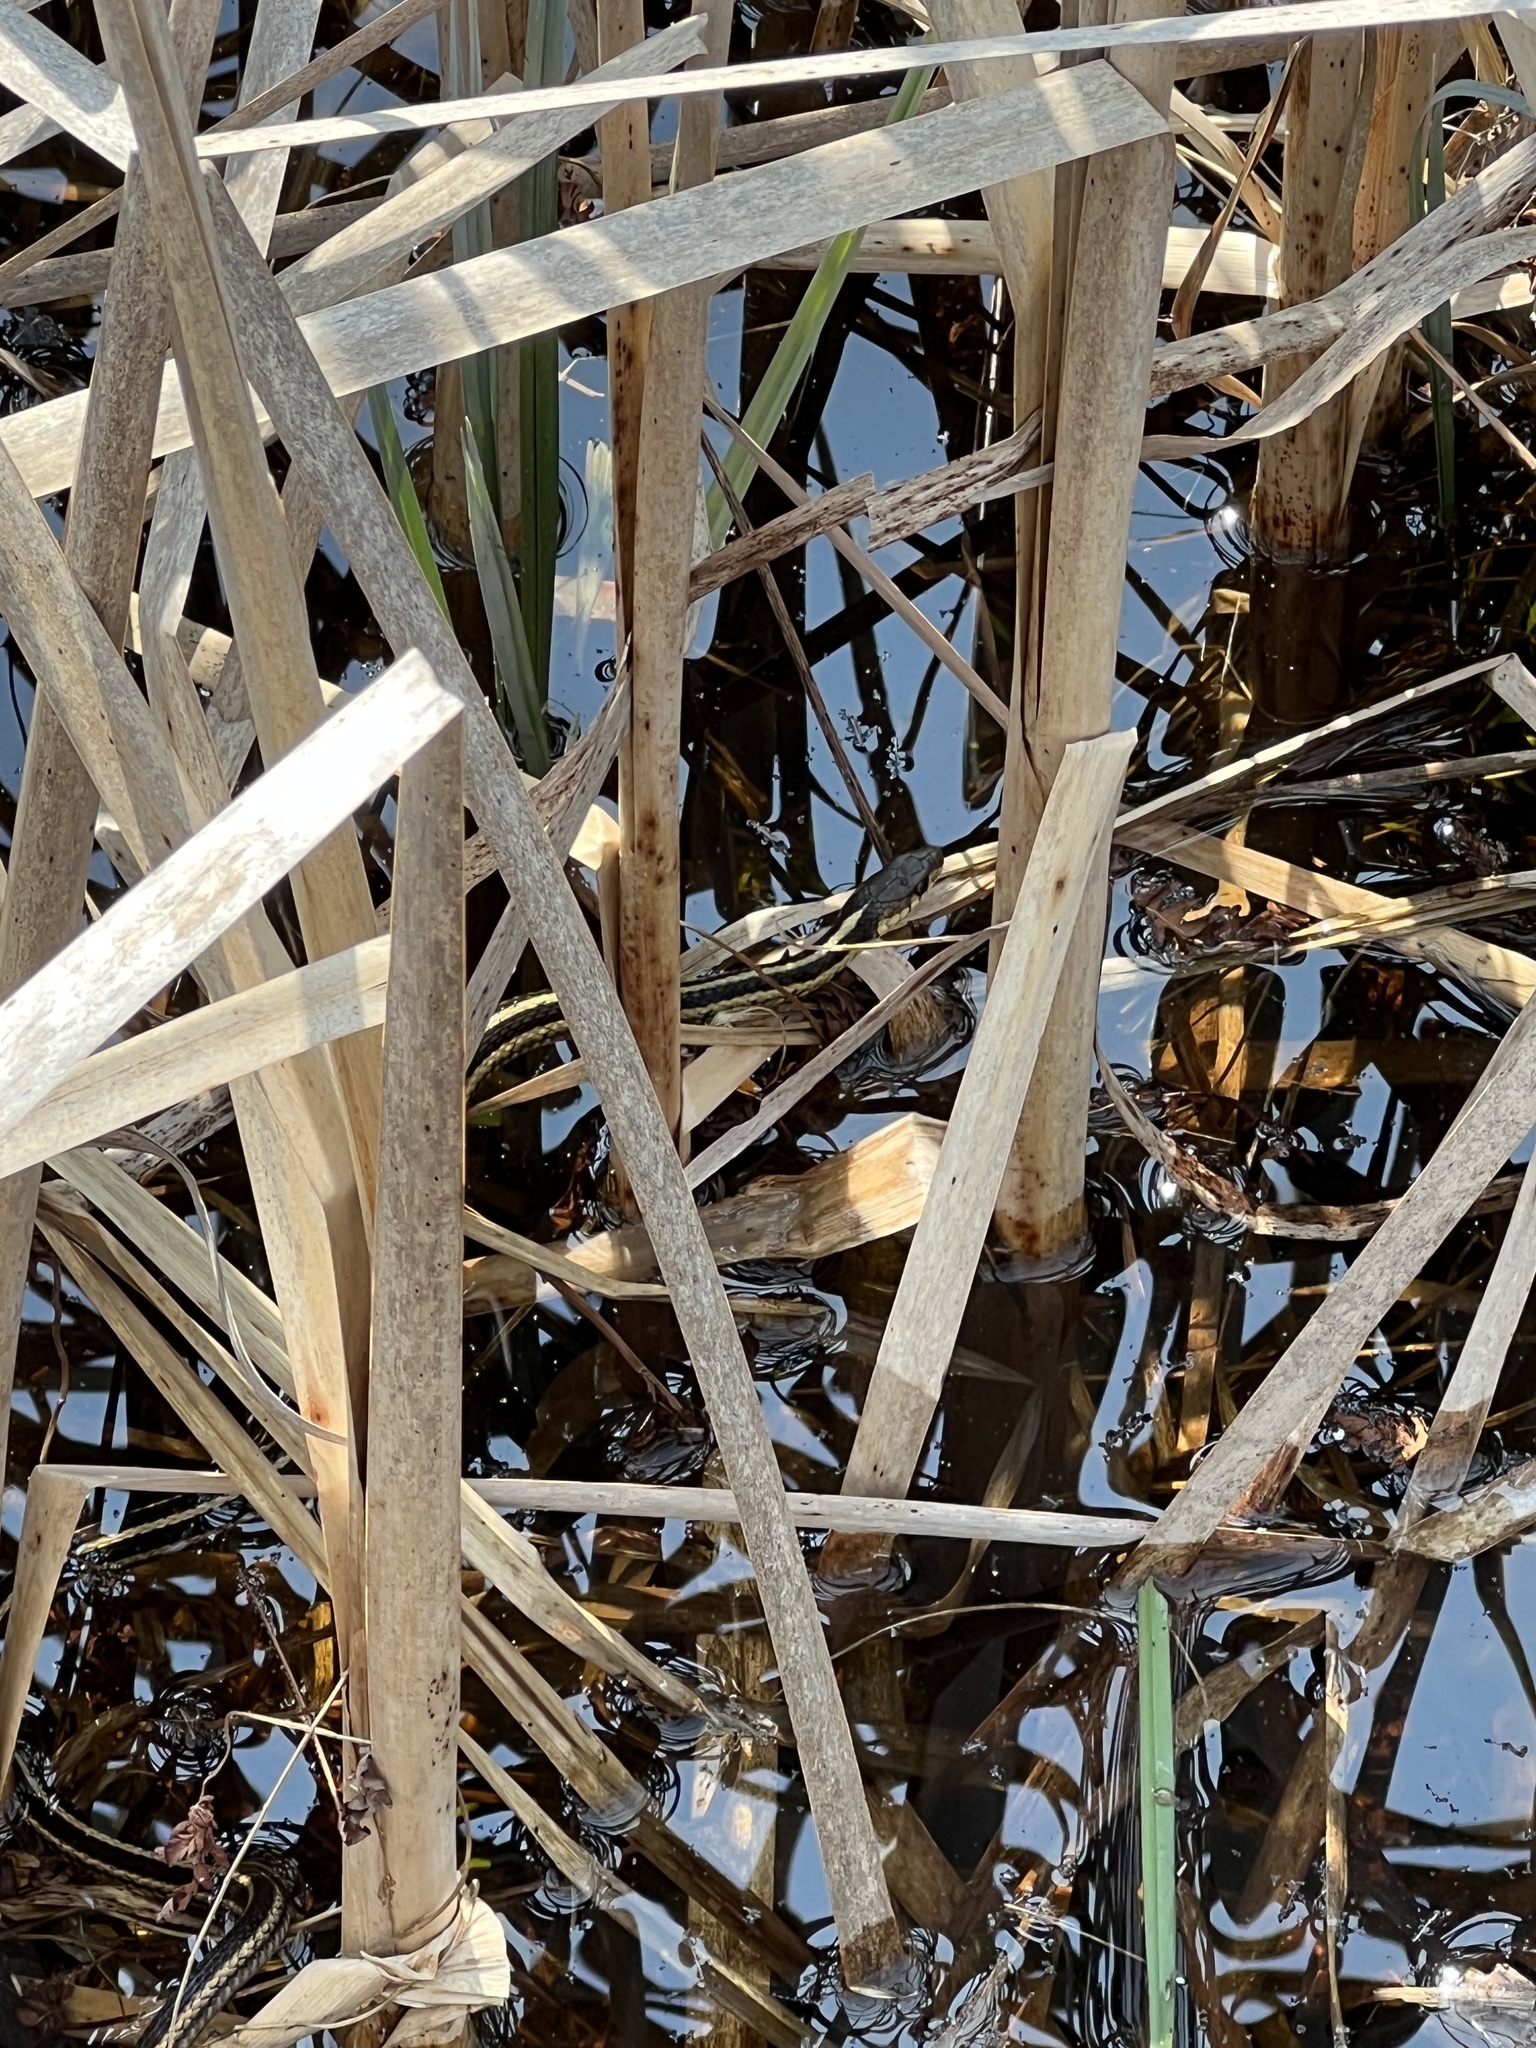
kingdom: Animalia
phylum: Chordata
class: Squamata
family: Colubridae
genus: Thamnophis
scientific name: Thamnophis sirtalis
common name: Common garter snake
